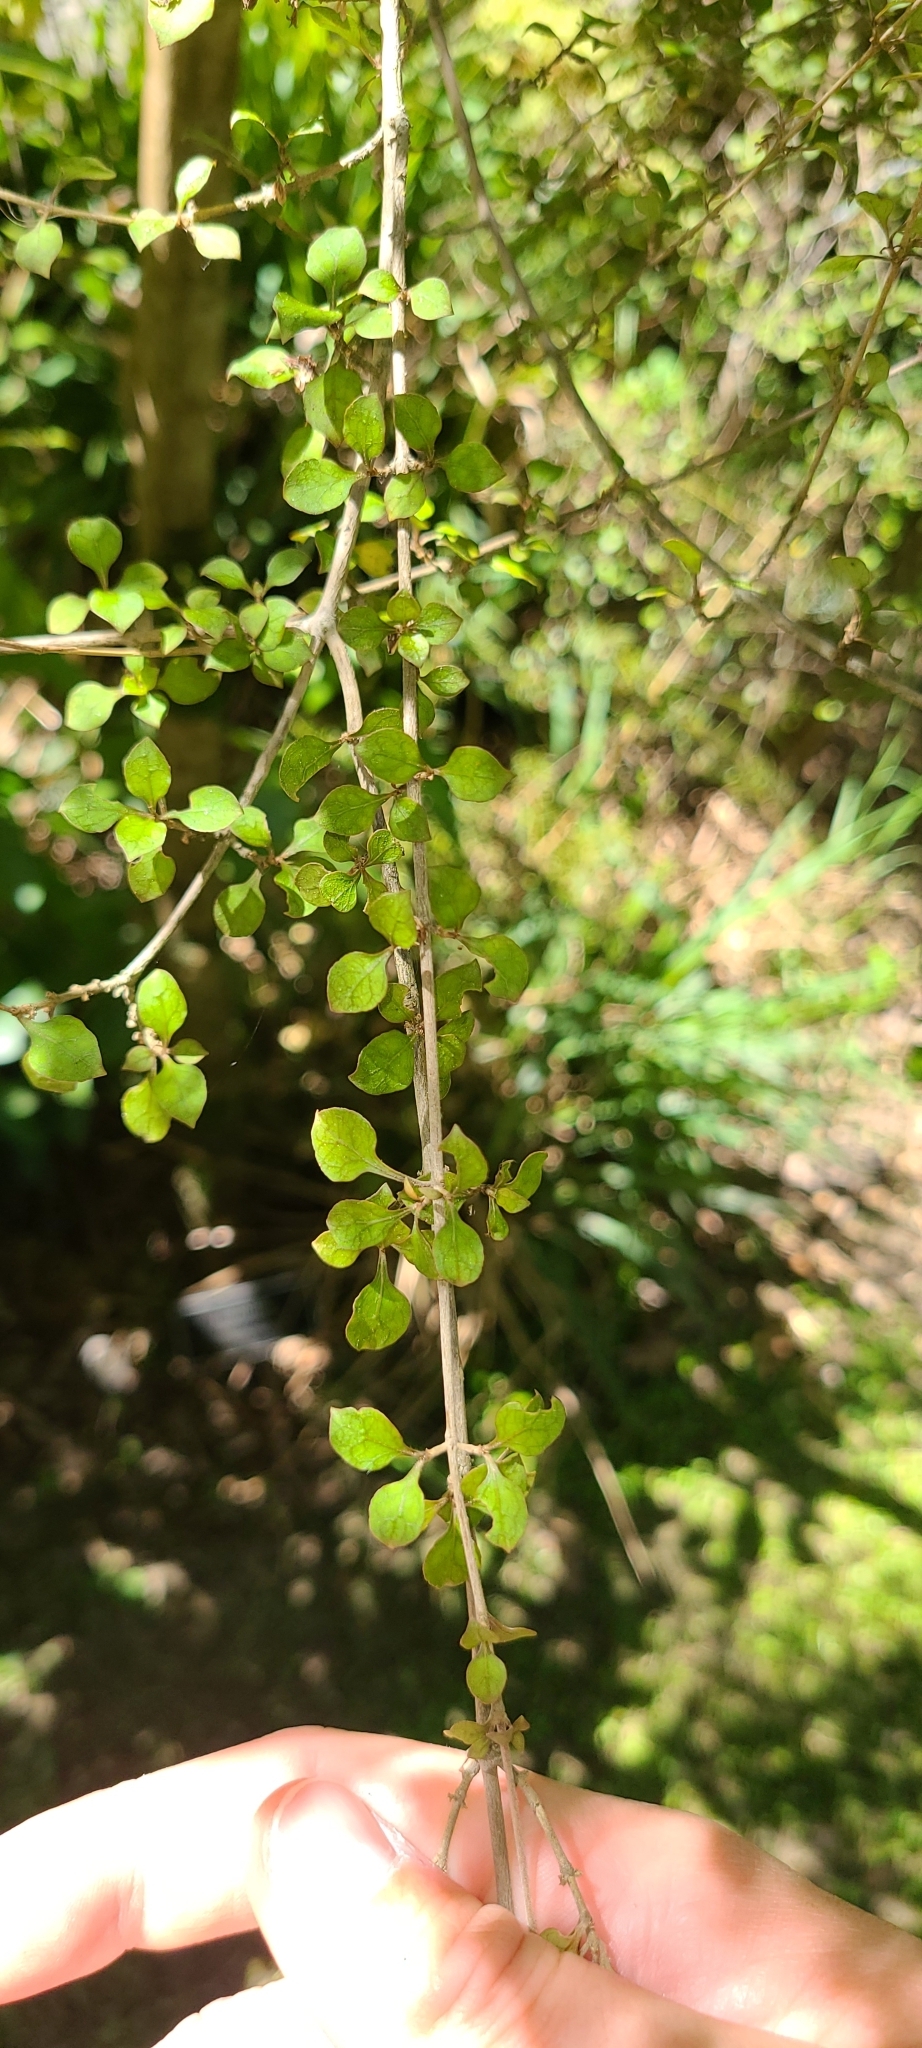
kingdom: Plantae
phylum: Tracheophyta
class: Magnoliopsida
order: Gentianales
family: Rubiaceae
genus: Coprosma
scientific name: Coprosma areolata
